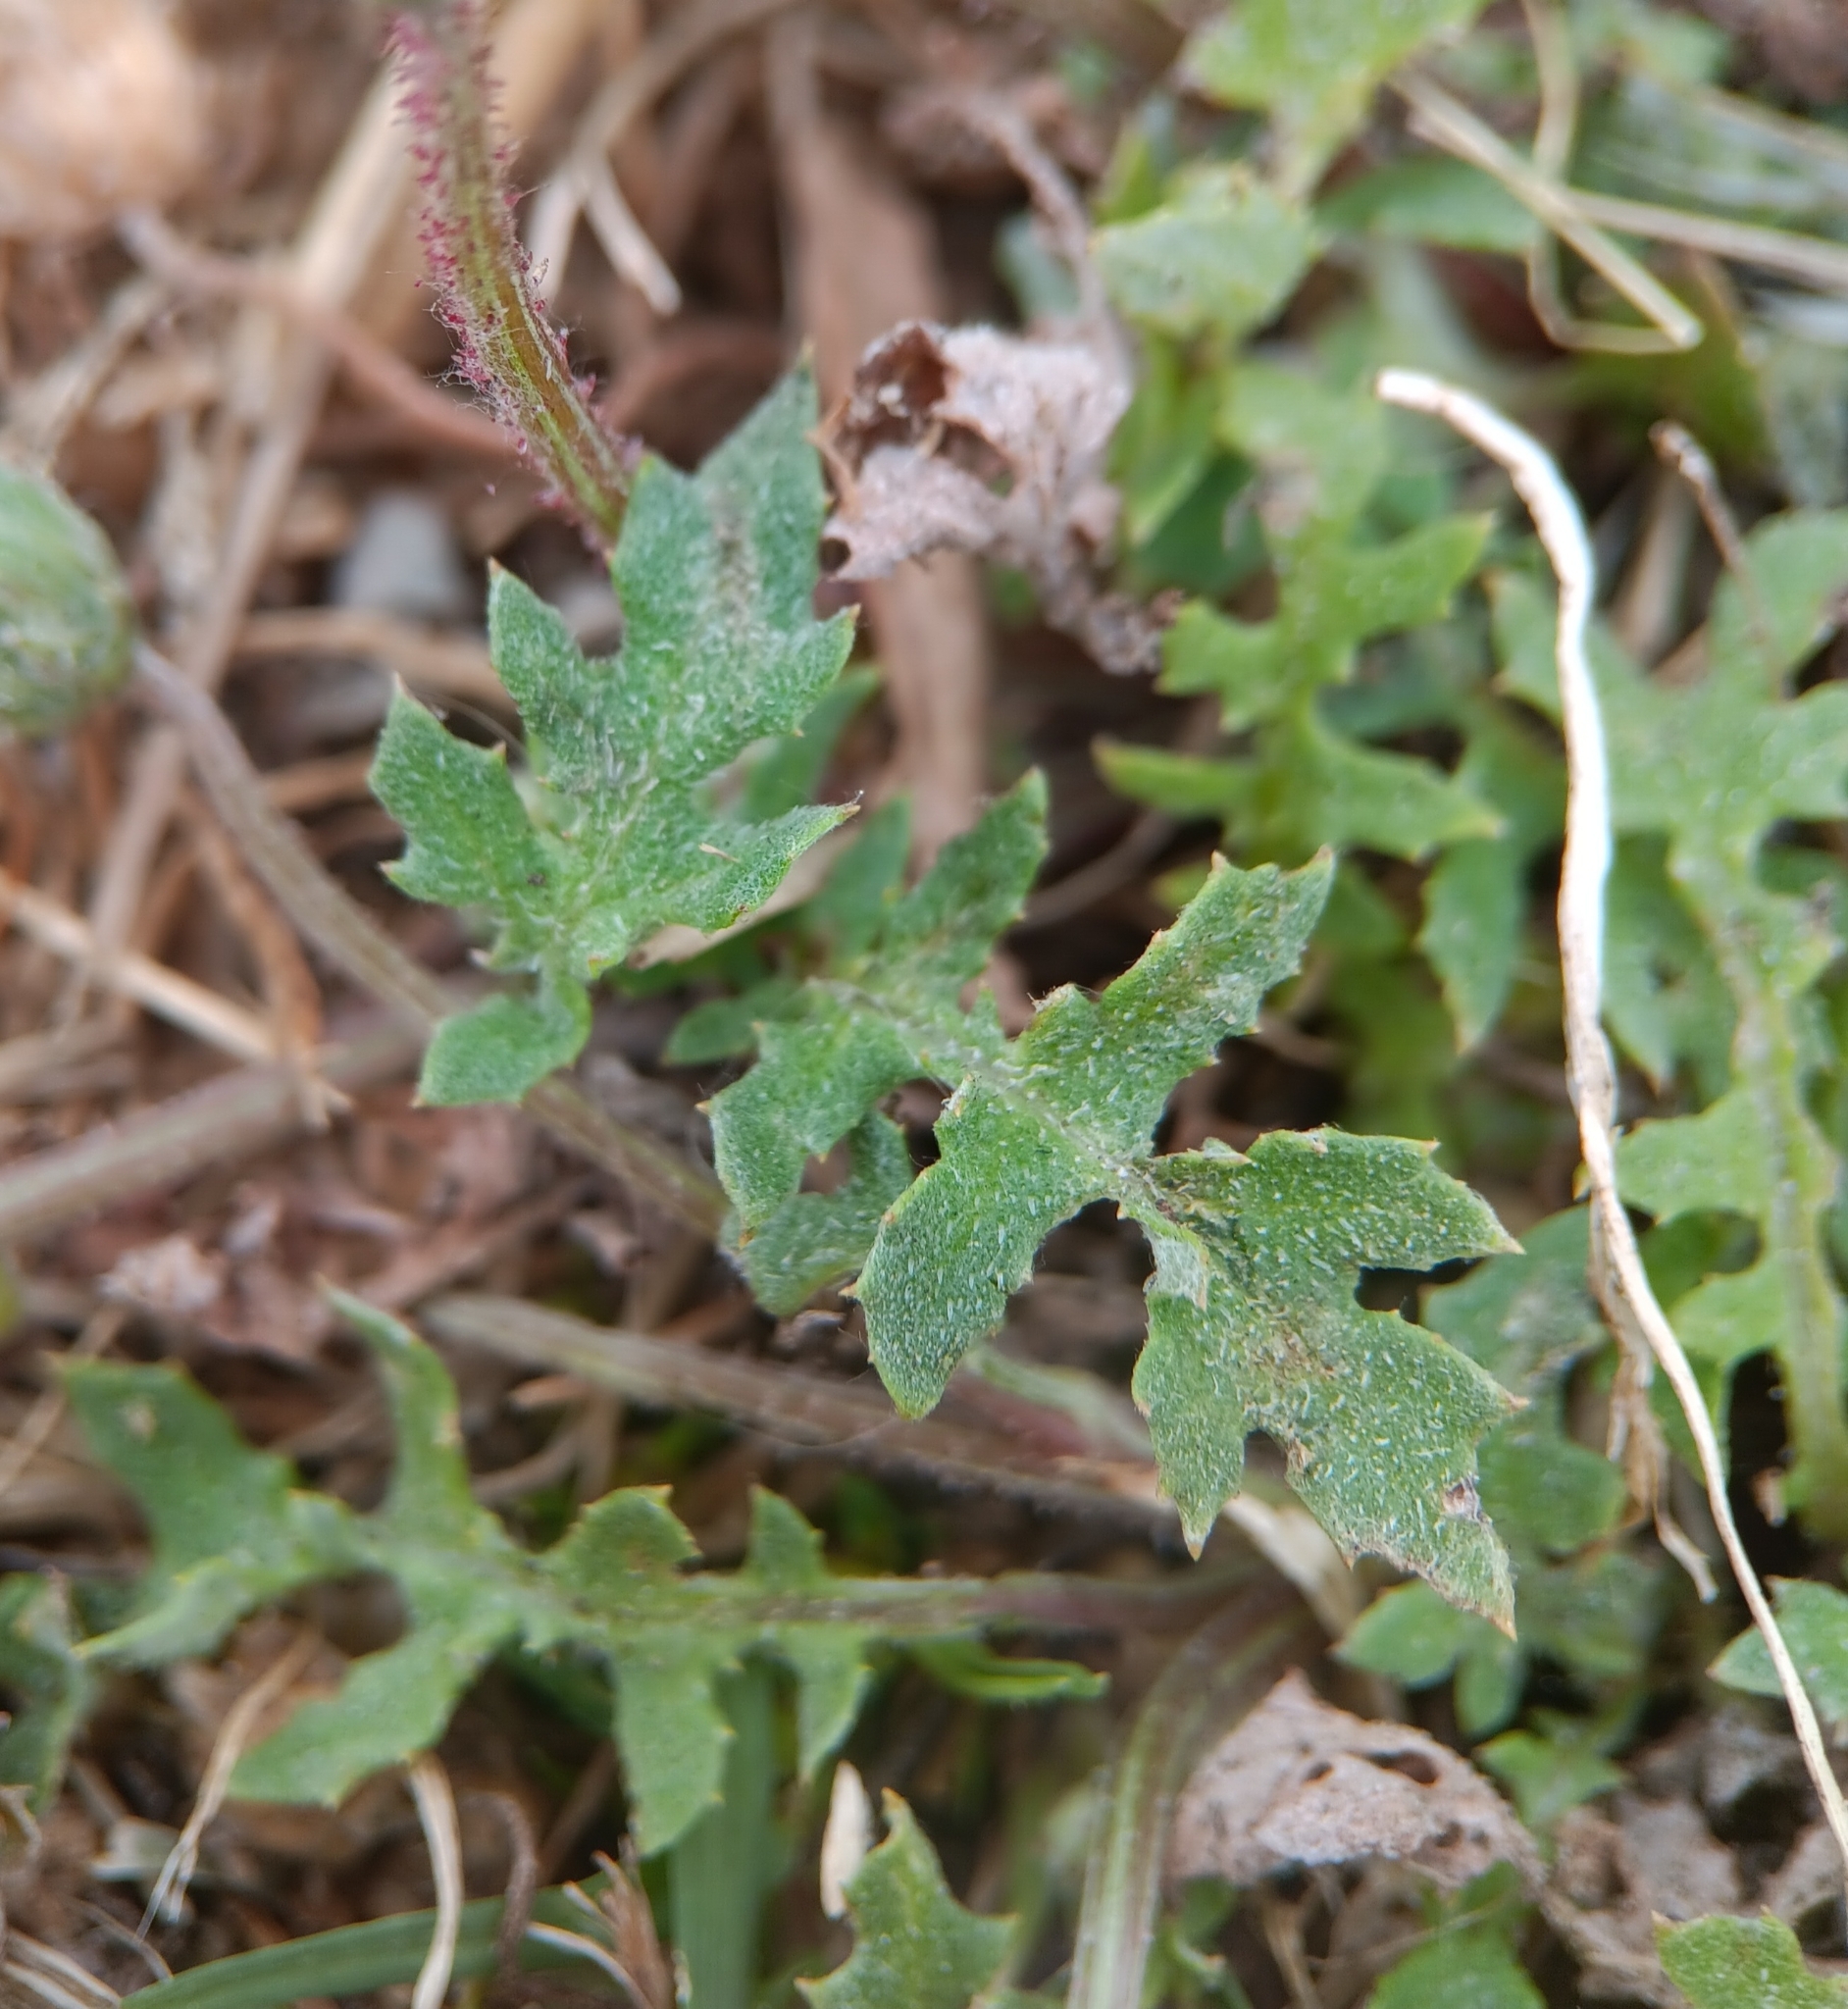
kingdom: Plantae
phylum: Tracheophyta
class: Magnoliopsida
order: Asterales
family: Asteraceae
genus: Arctotheca
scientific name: Arctotheca calendula
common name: Capeweed
